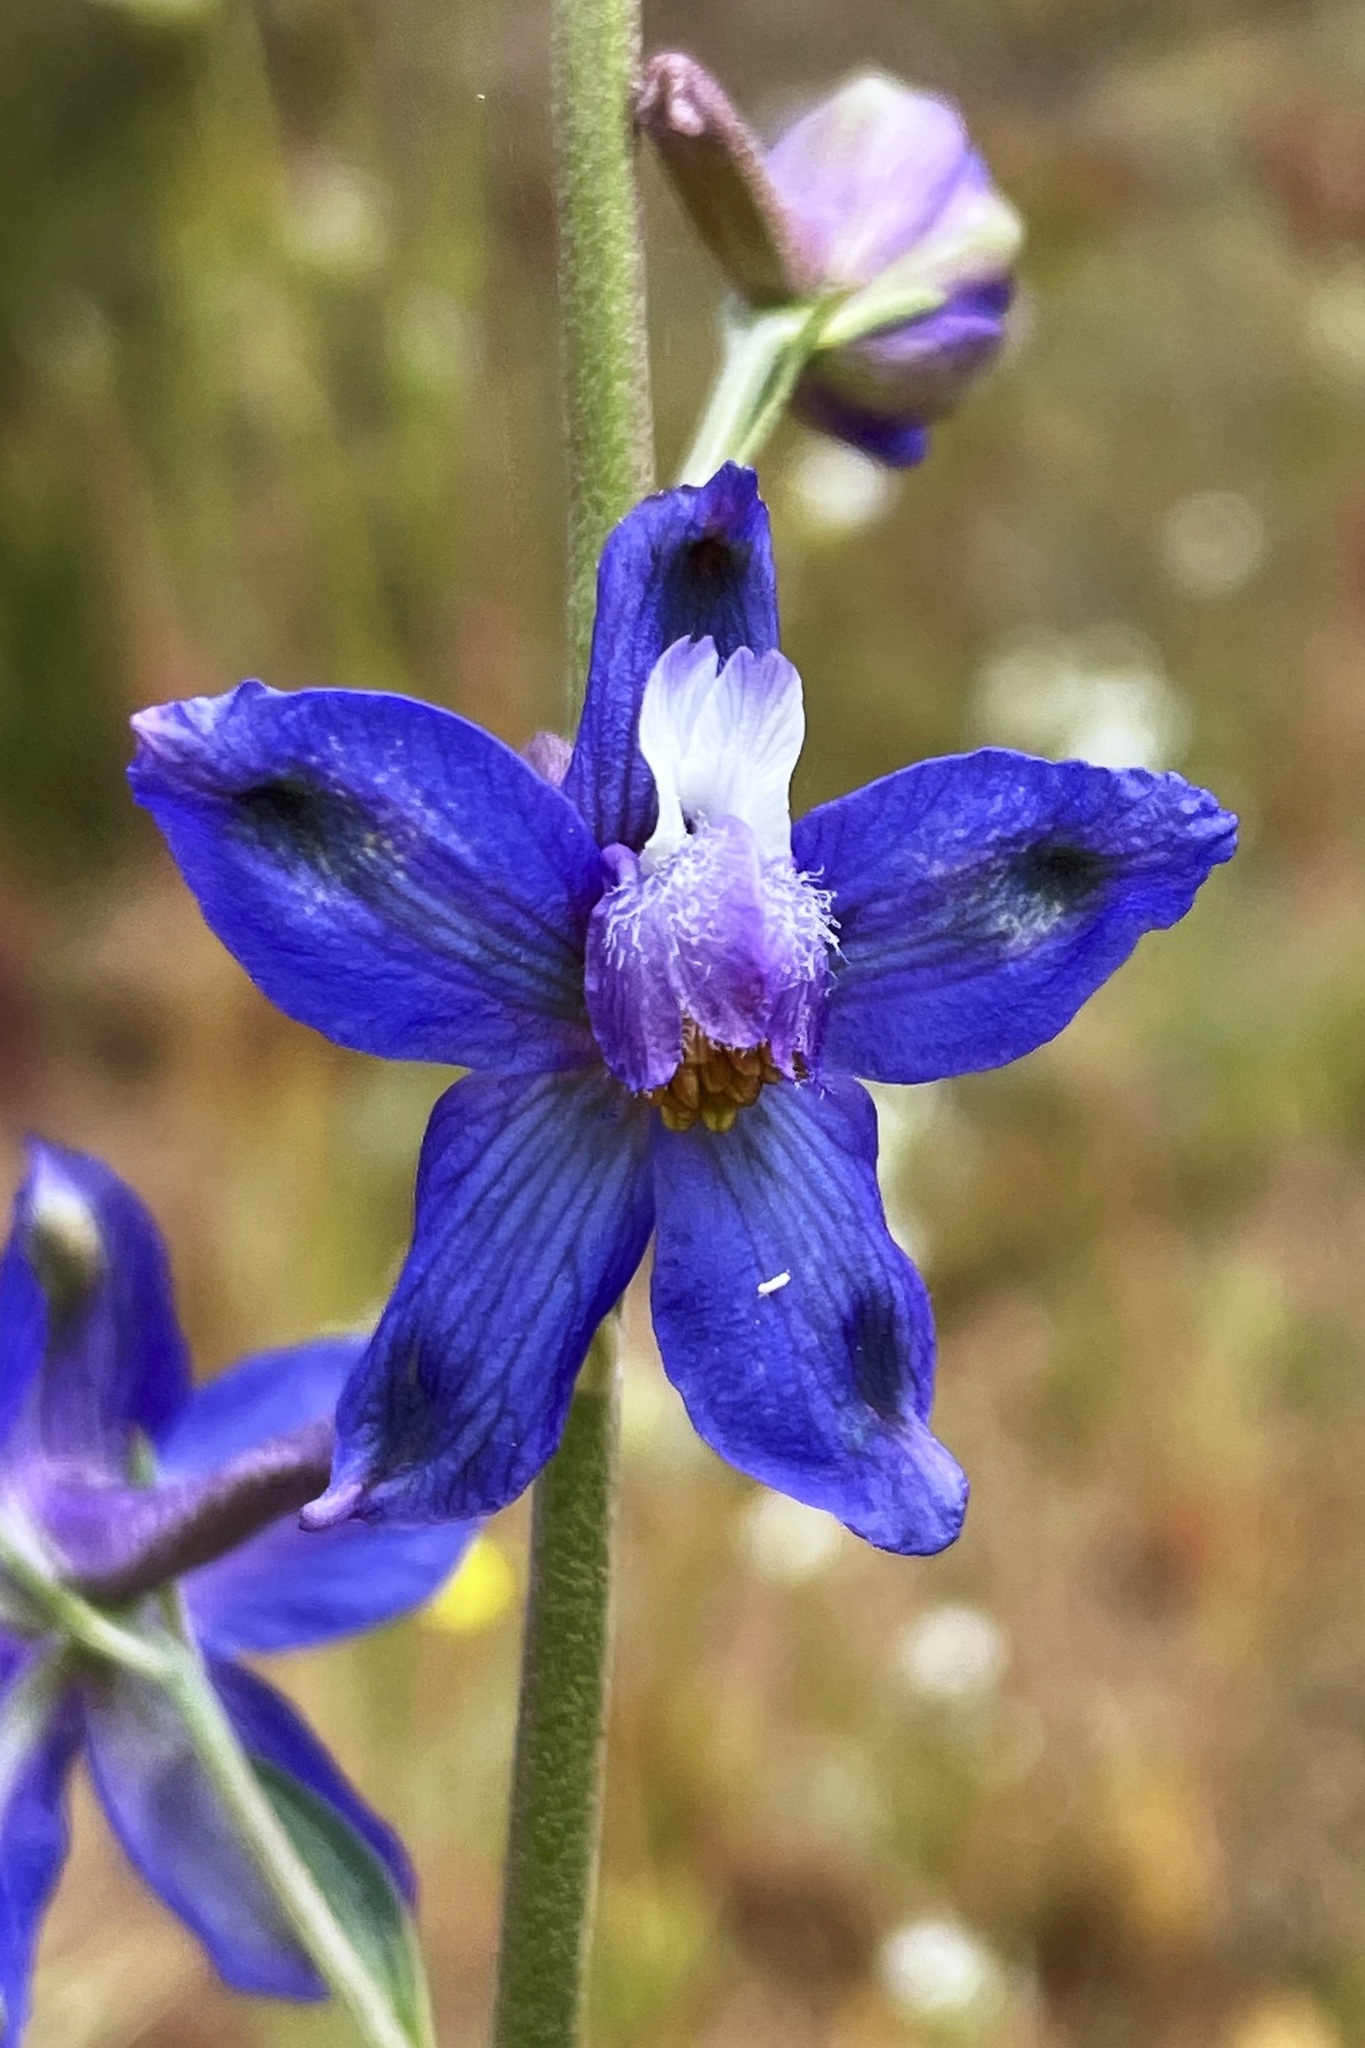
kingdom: Plantae
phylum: Tracheophyta
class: Magnoliopsida
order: Ranunculales
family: Ranunculaceae
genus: Delphinium
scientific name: Delphinium parryi
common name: Parry's larkspur
